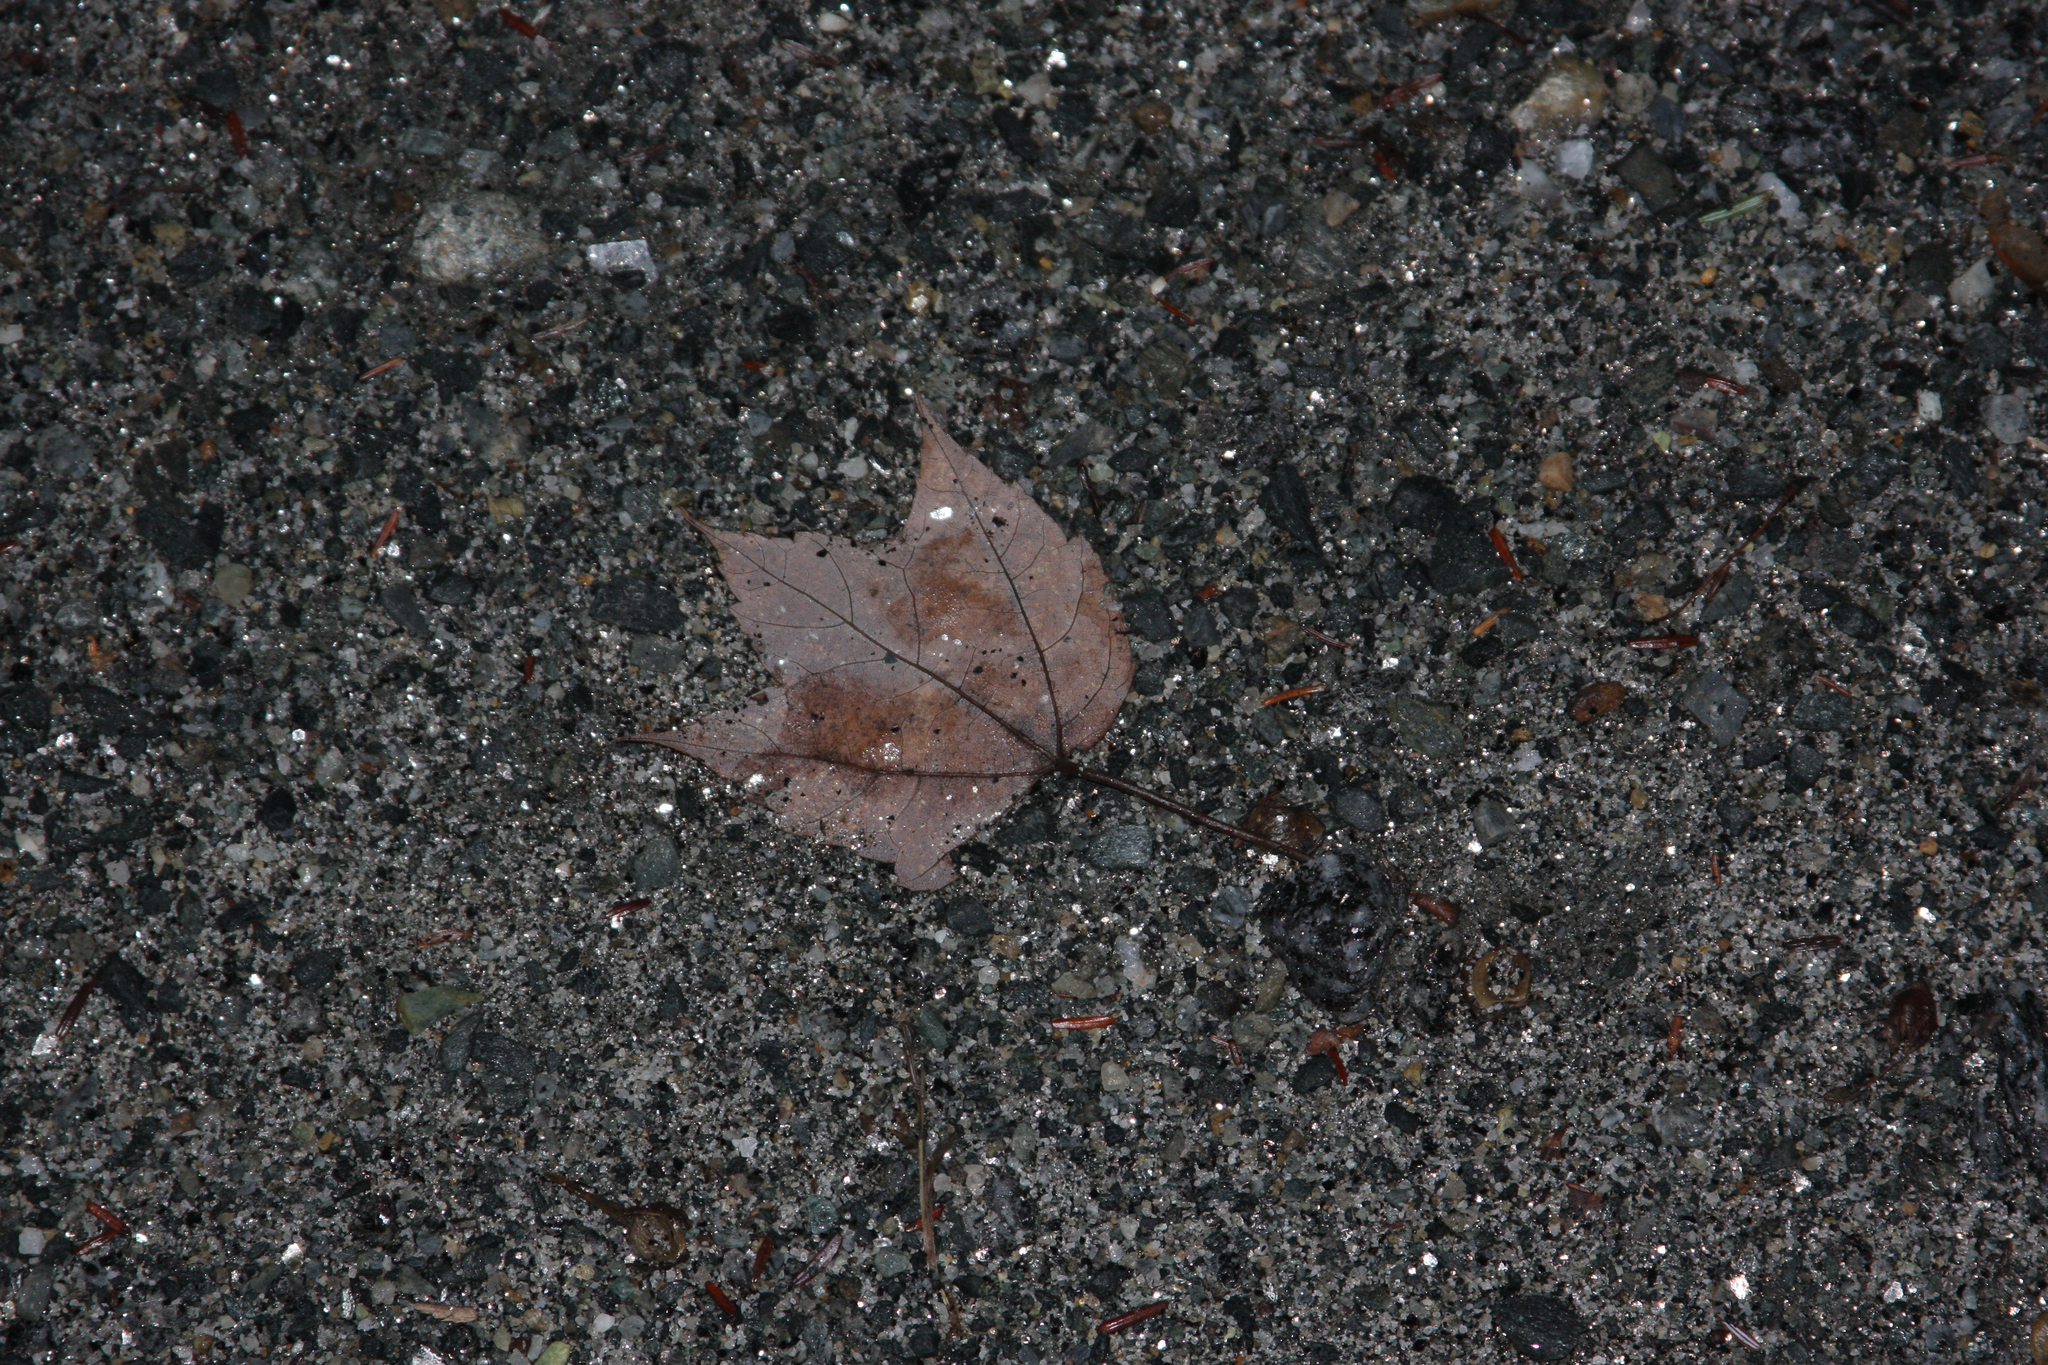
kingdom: Plantae
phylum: Tracheophyta
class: Magnoliopsida
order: Sapindales
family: Sapindaceae
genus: Acer
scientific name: Acer rubrum
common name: Red maple
